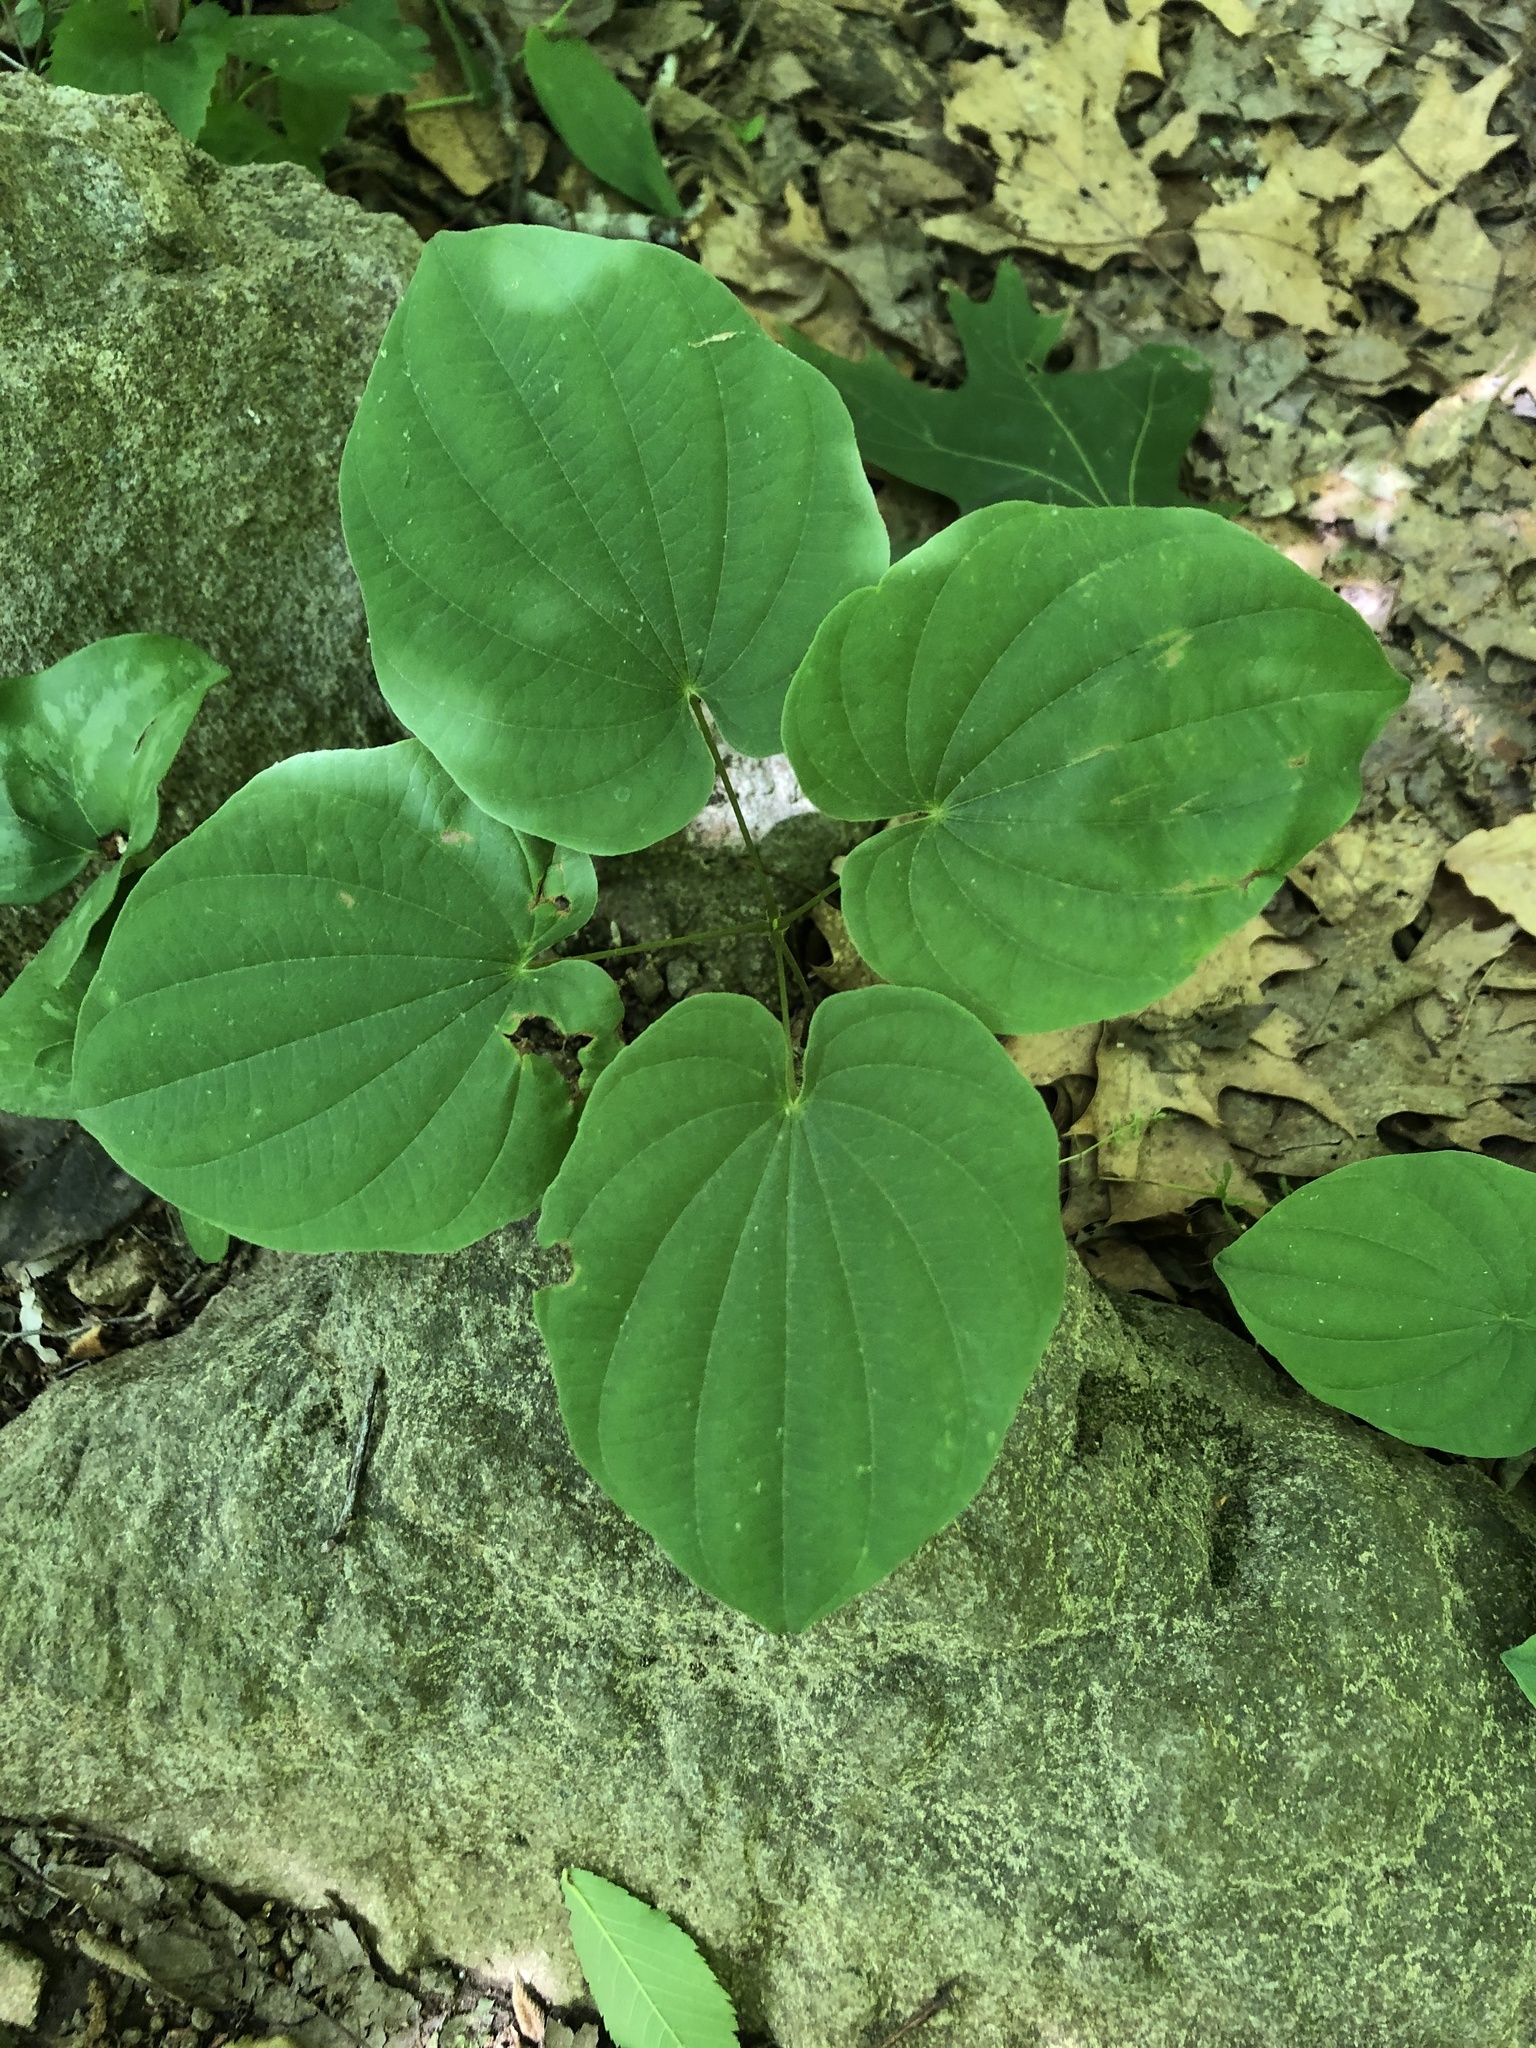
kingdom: Plantae
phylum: Tracheophyta
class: Liliopsida
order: Dioscoreales
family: Dioscoreaceae
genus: Dioscorea
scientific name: Dioscorea villosa
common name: Wild yam
